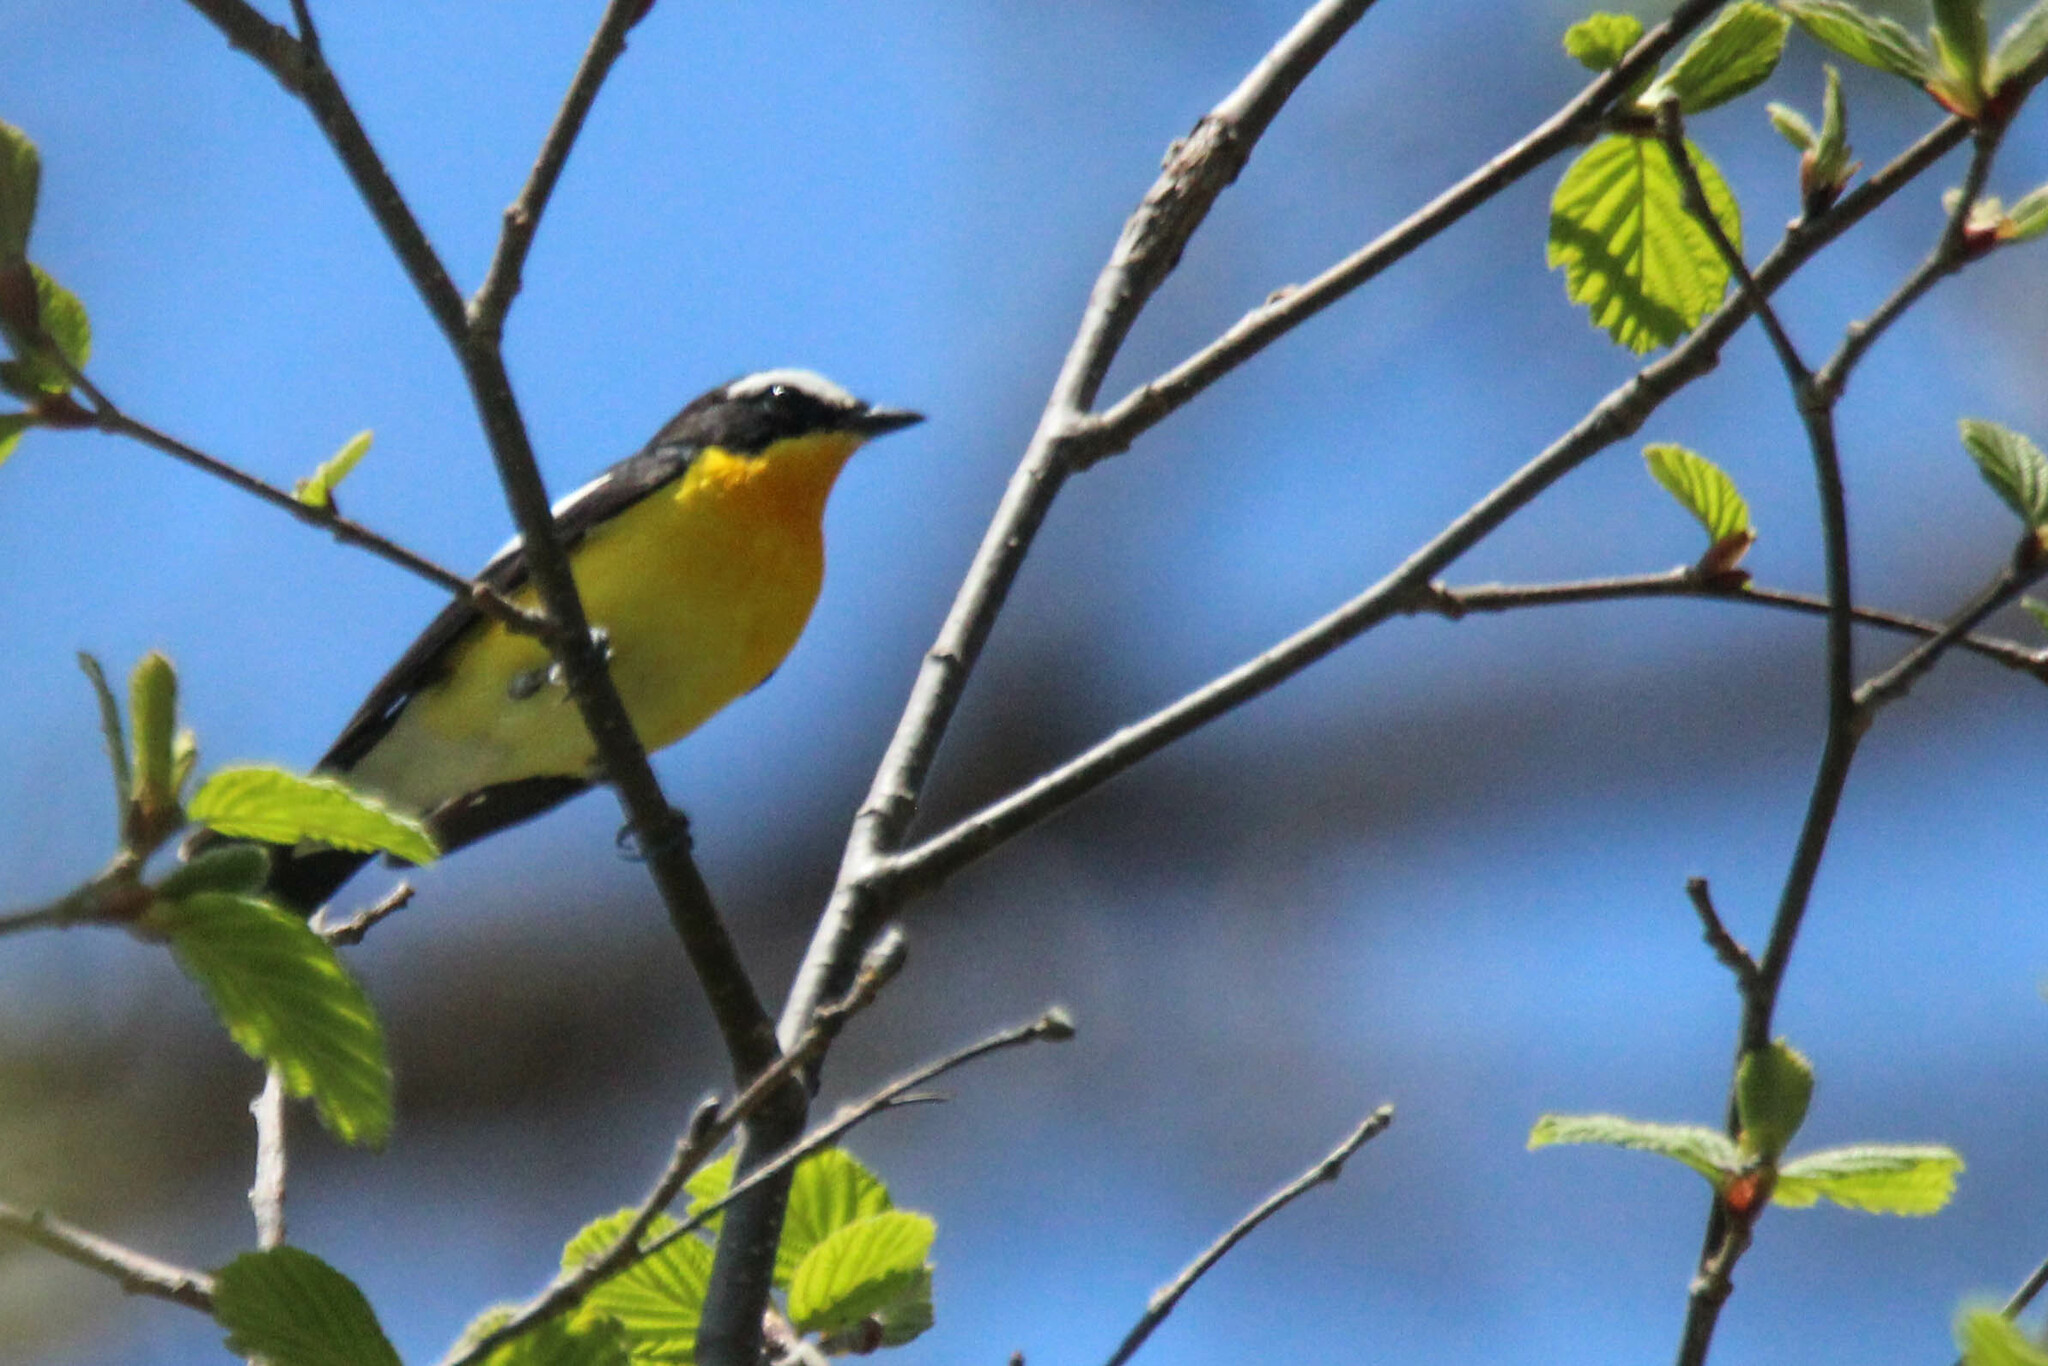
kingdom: Animalia
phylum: Chordata
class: Aves
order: Passeriformes
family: Muscicapidae
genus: Ficedula
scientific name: Ficedula zanthopygia
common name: Yellow-rumped flycatcher
